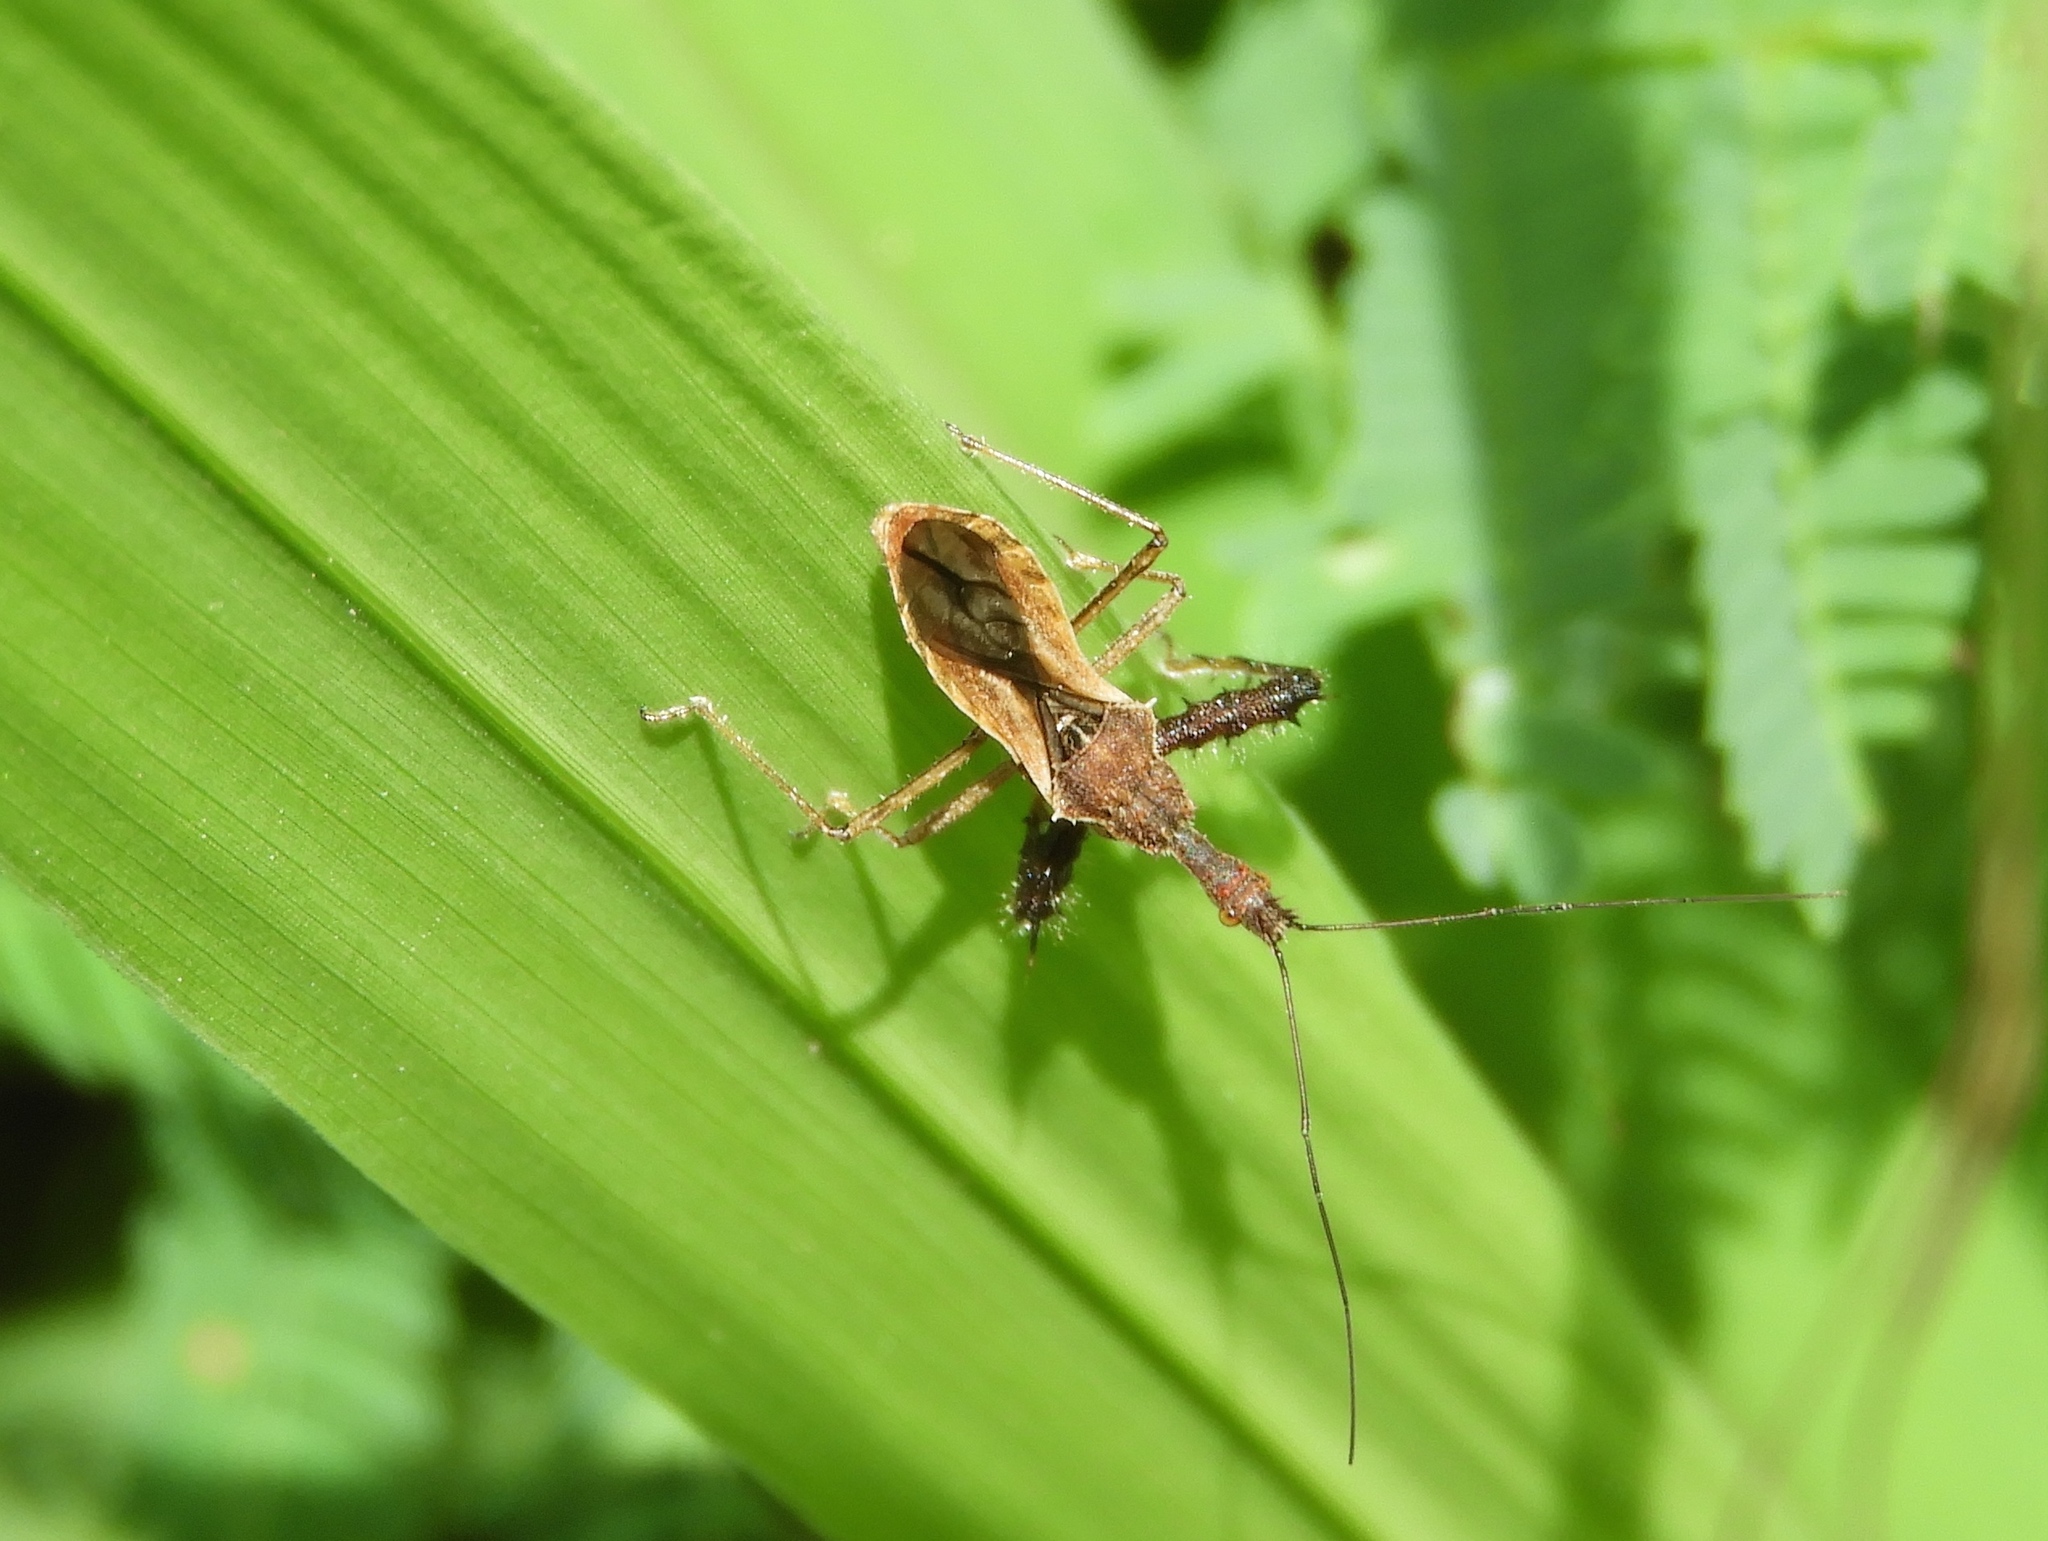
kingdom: Animalia
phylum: Arthropoda
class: Insecta
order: Hemiptera
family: Reduviidae
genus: Sinea
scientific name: Sinea
